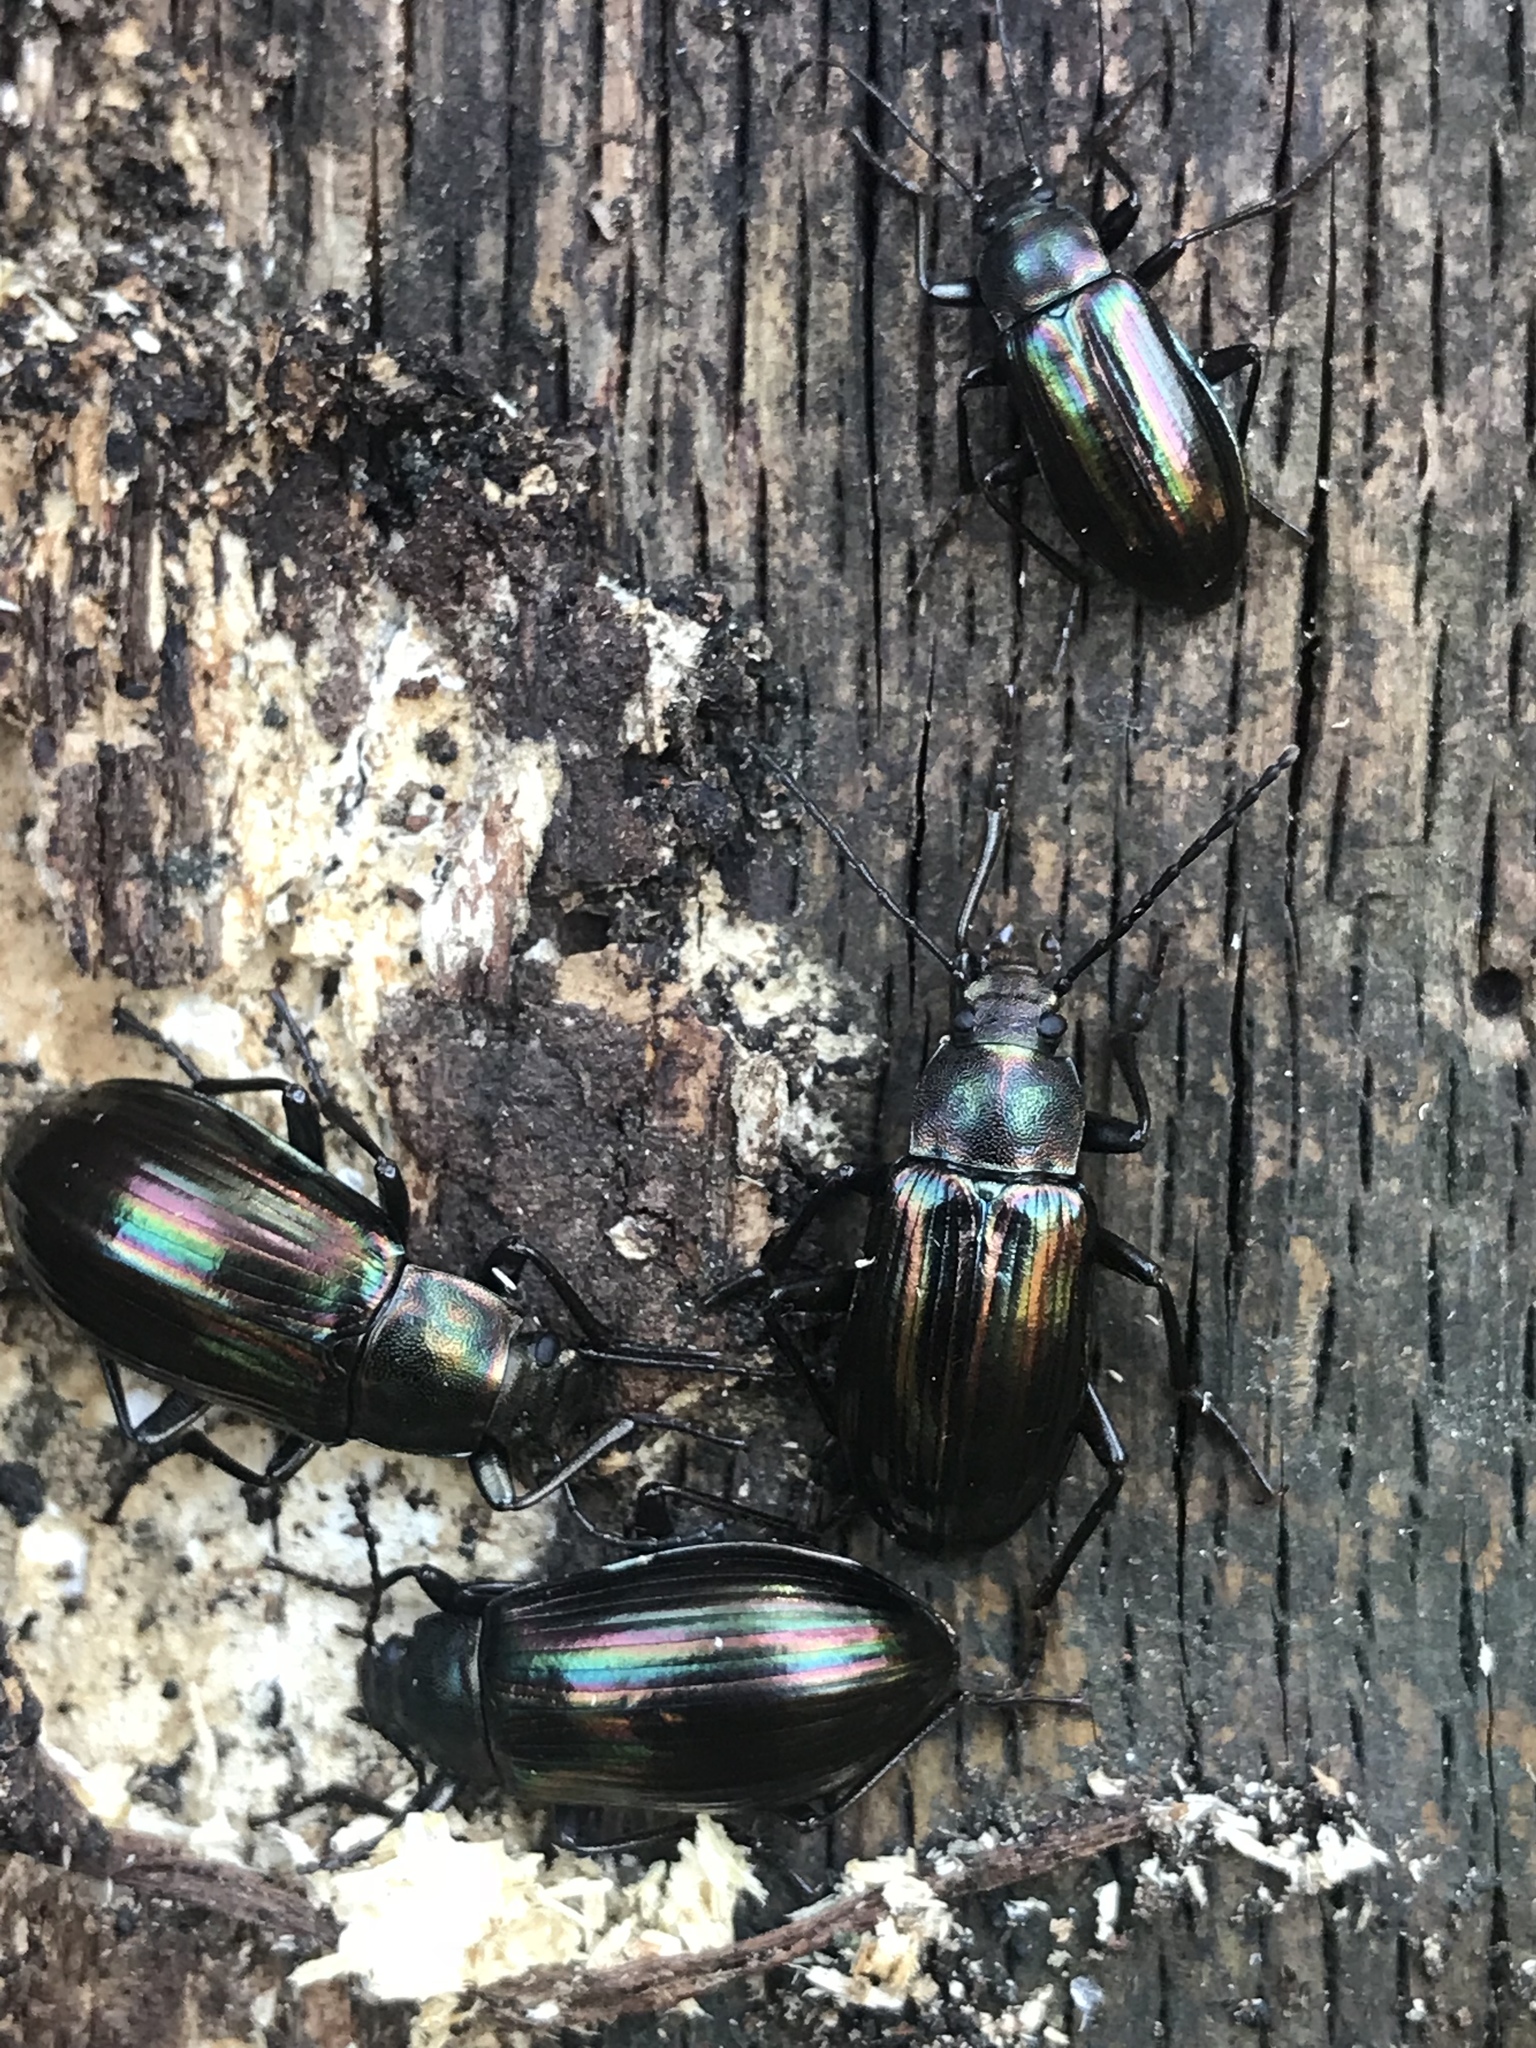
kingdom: Animalia
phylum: Arthropoda
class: Insecta
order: Coleoptera
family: Tenebrionidae
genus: Tarpela
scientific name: Tarpela micans
